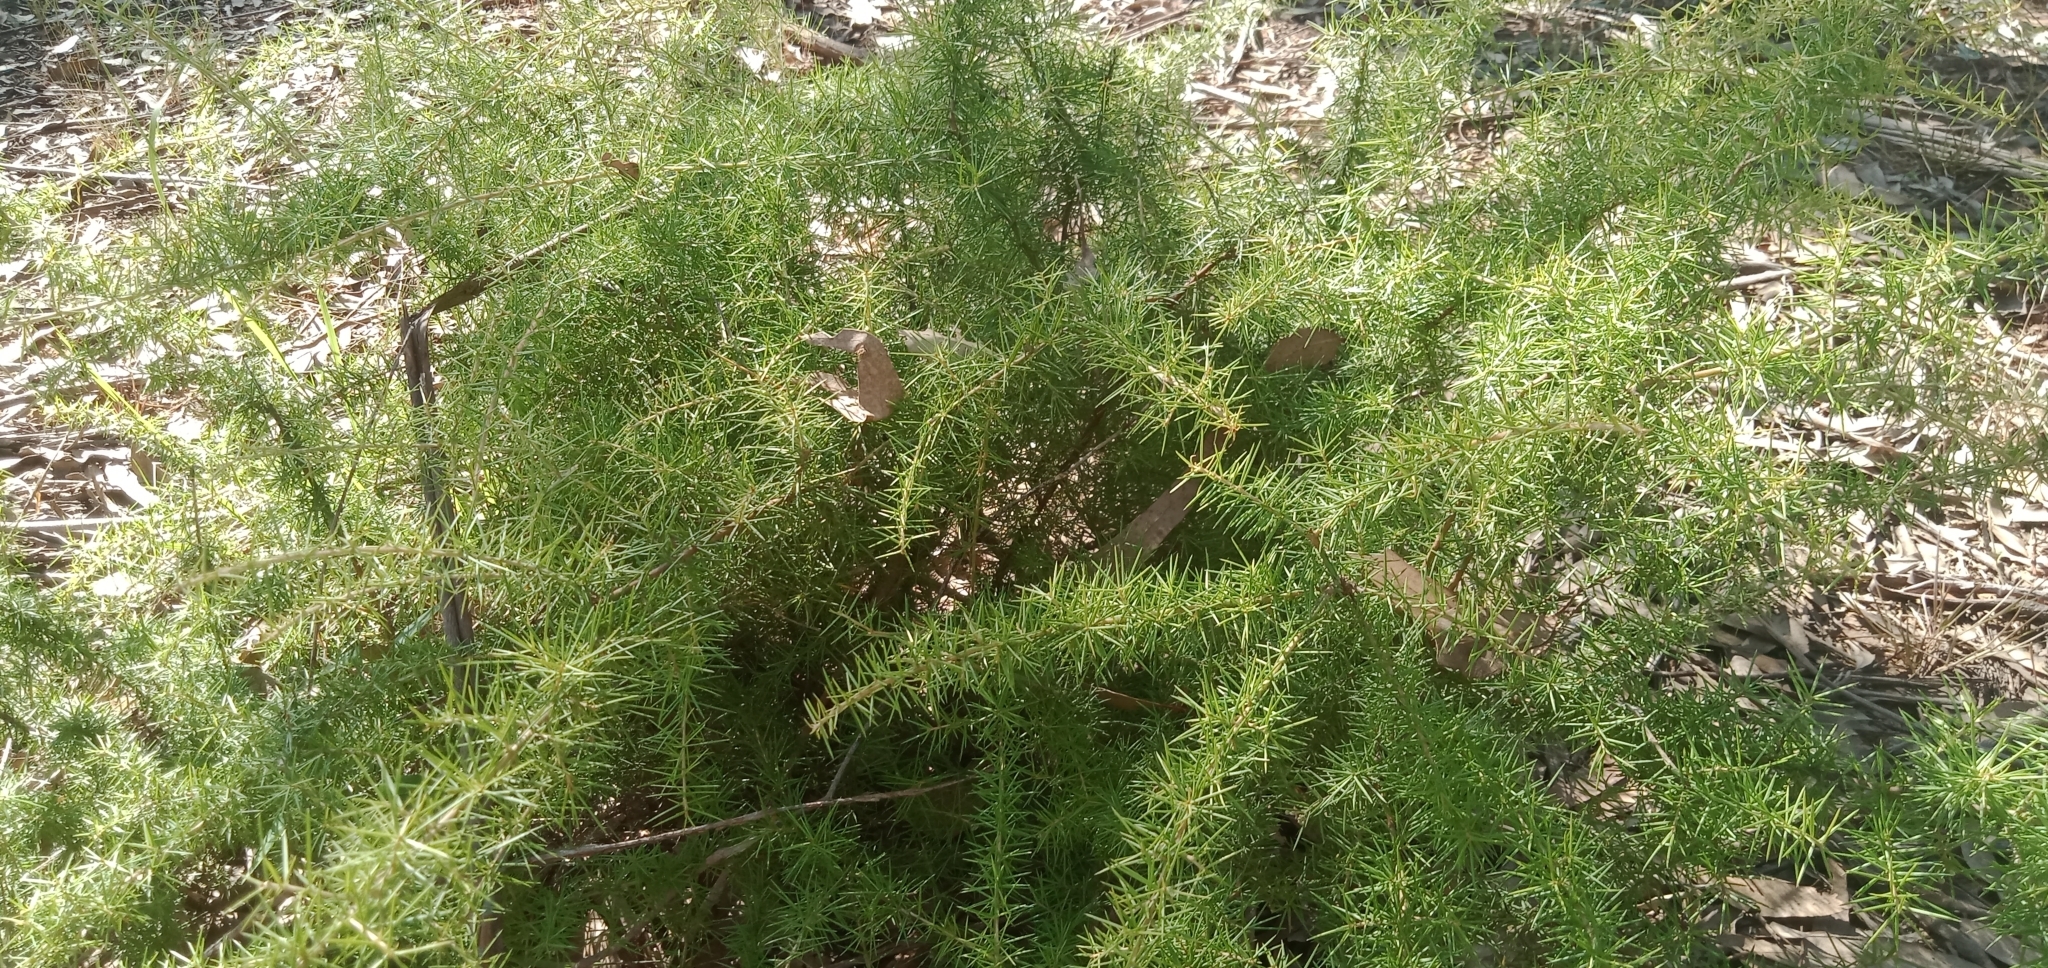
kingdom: Plantae
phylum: Tracheophyta
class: Magnoliopsida
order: Proteales
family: Proteaceae
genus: Grevillea
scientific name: Grevillea juniperina
